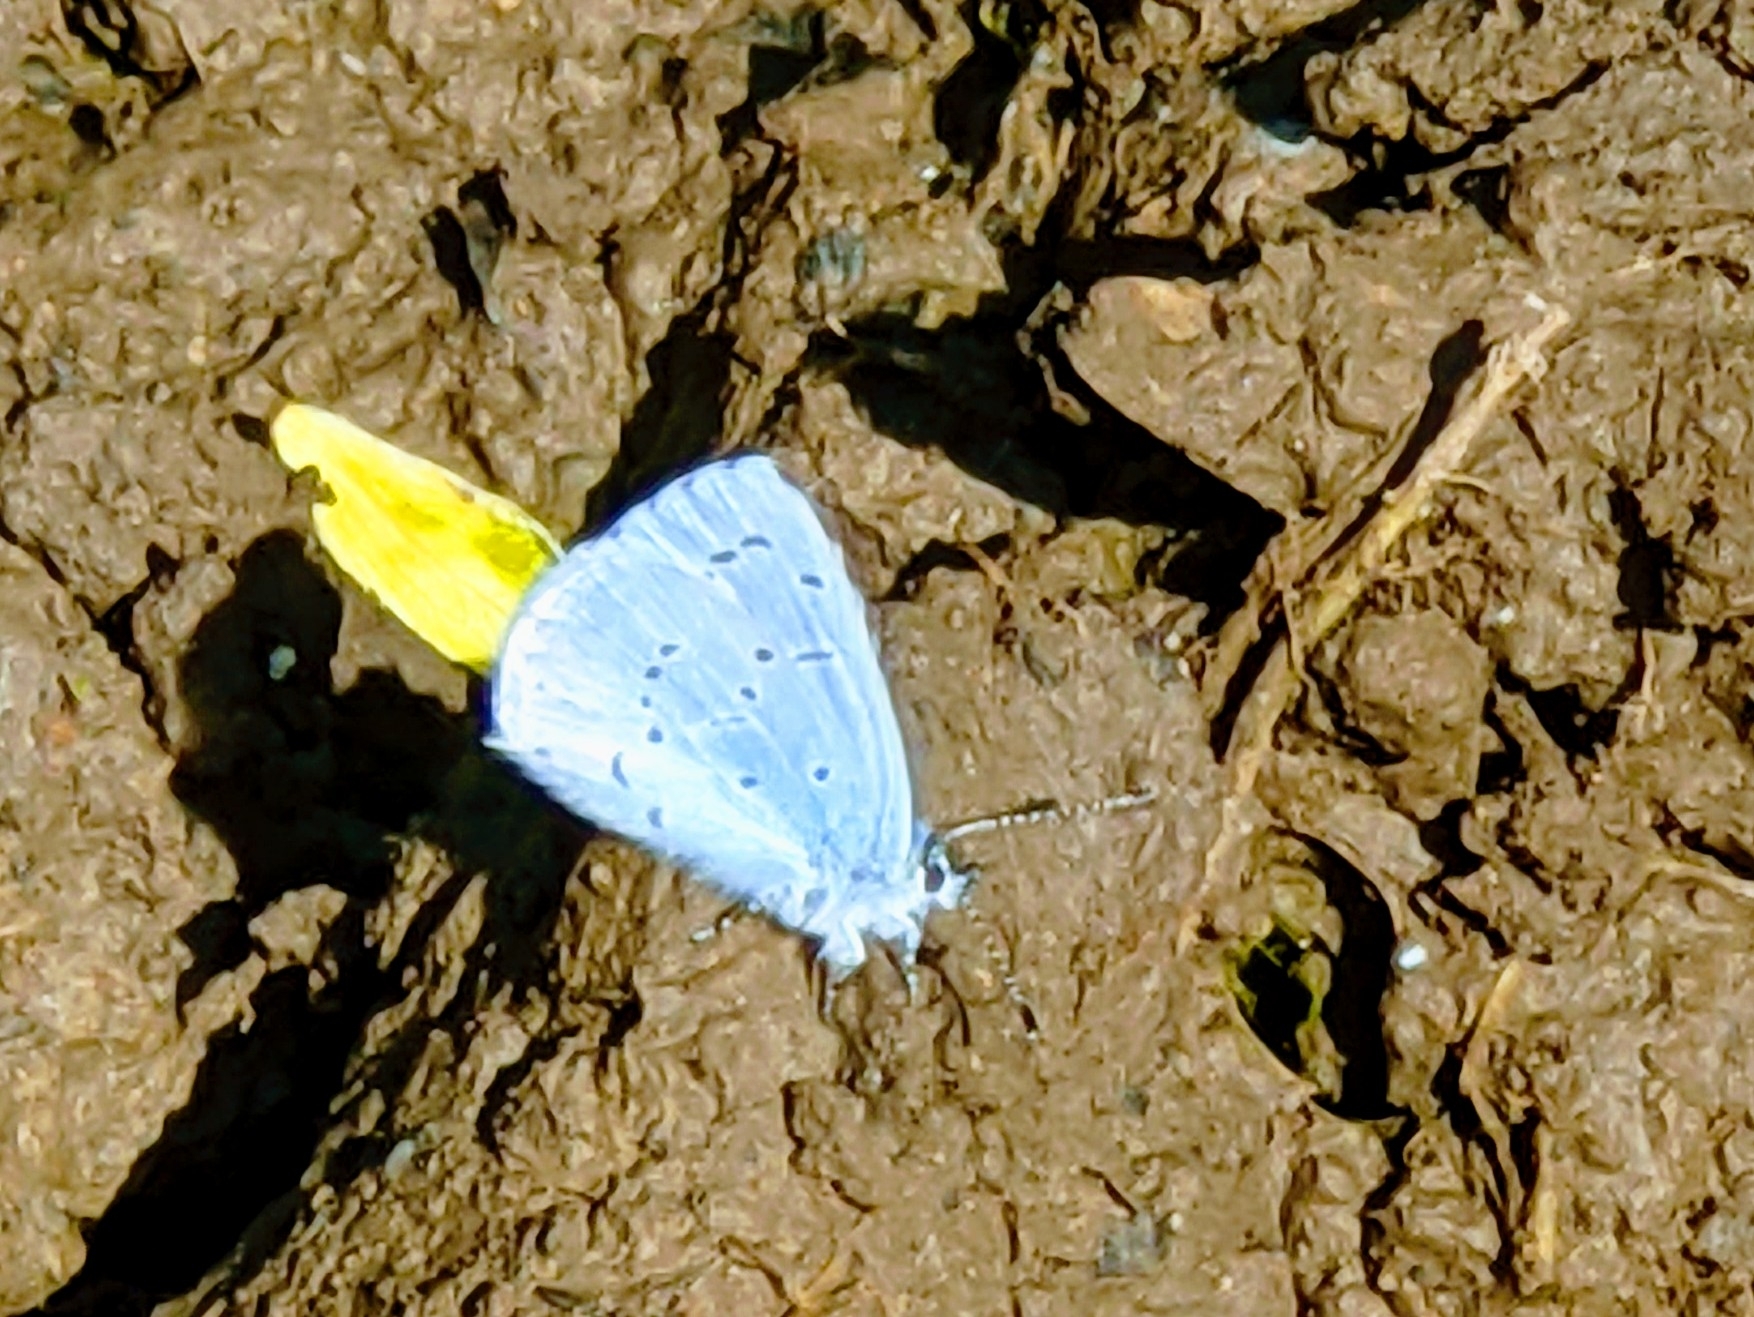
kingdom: Animalia
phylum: Arthropoda
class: Insecta
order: Lepidoptera
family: Lycaenidae
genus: Celastrina
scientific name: Celastrina argiolus
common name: Holly blue
